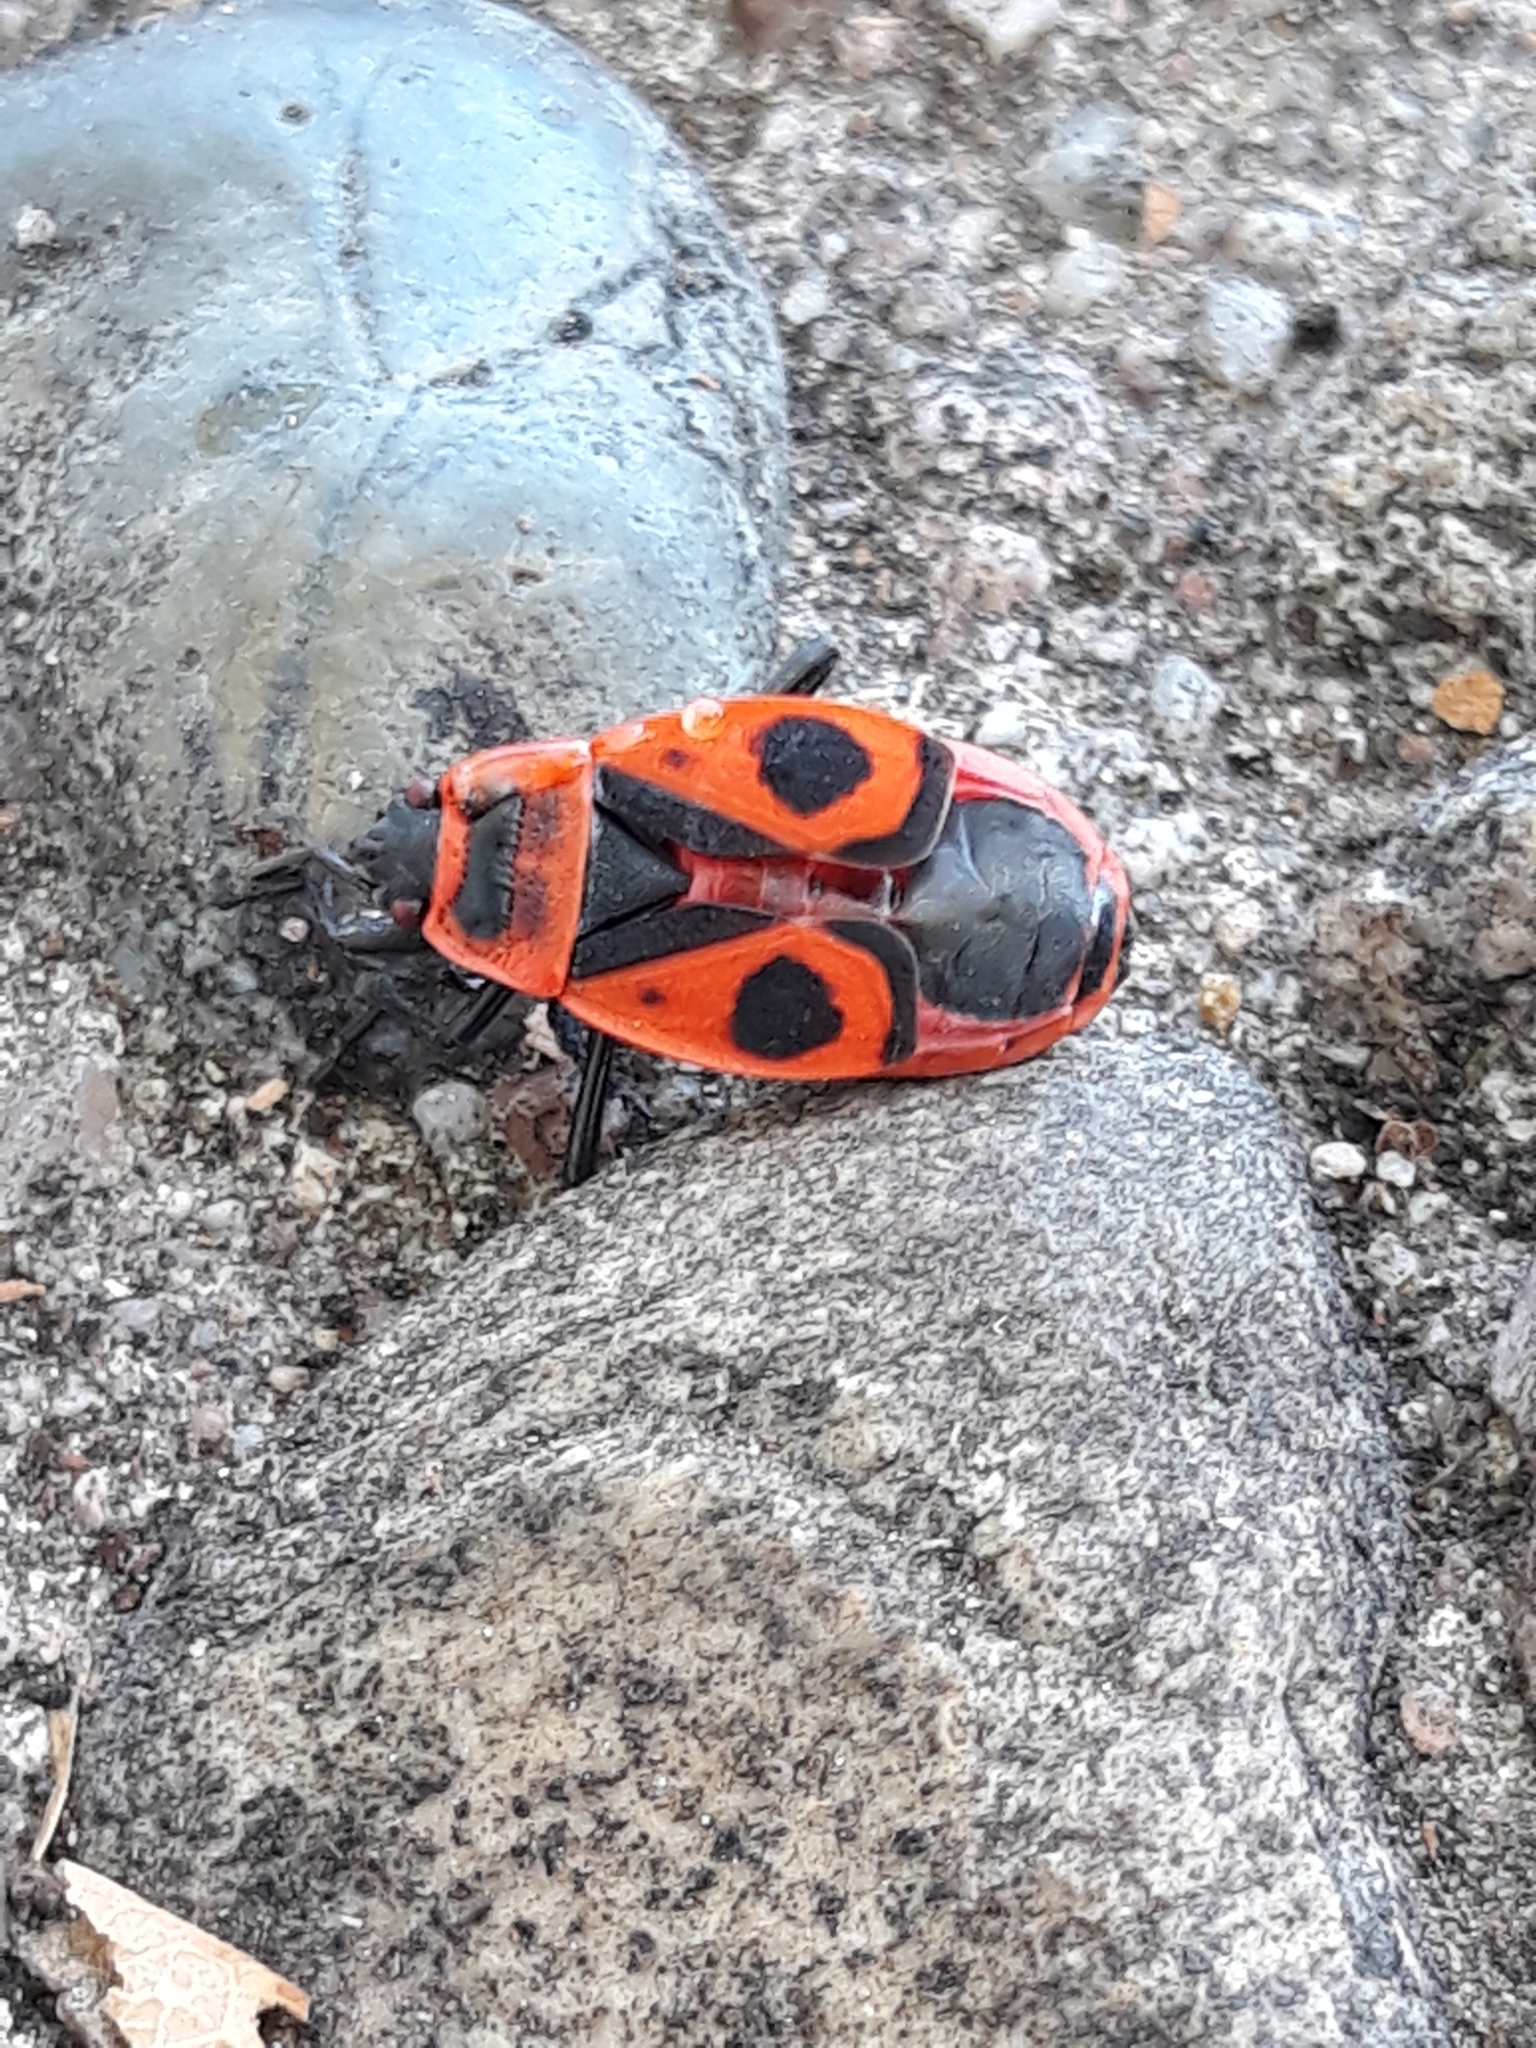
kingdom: Animalia
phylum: Arthropoda
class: Insecta
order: Hemiptera
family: Pyrrhocoridae
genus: Pyrrhocoris
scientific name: Pyrrhocoris apterus
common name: Firebug
